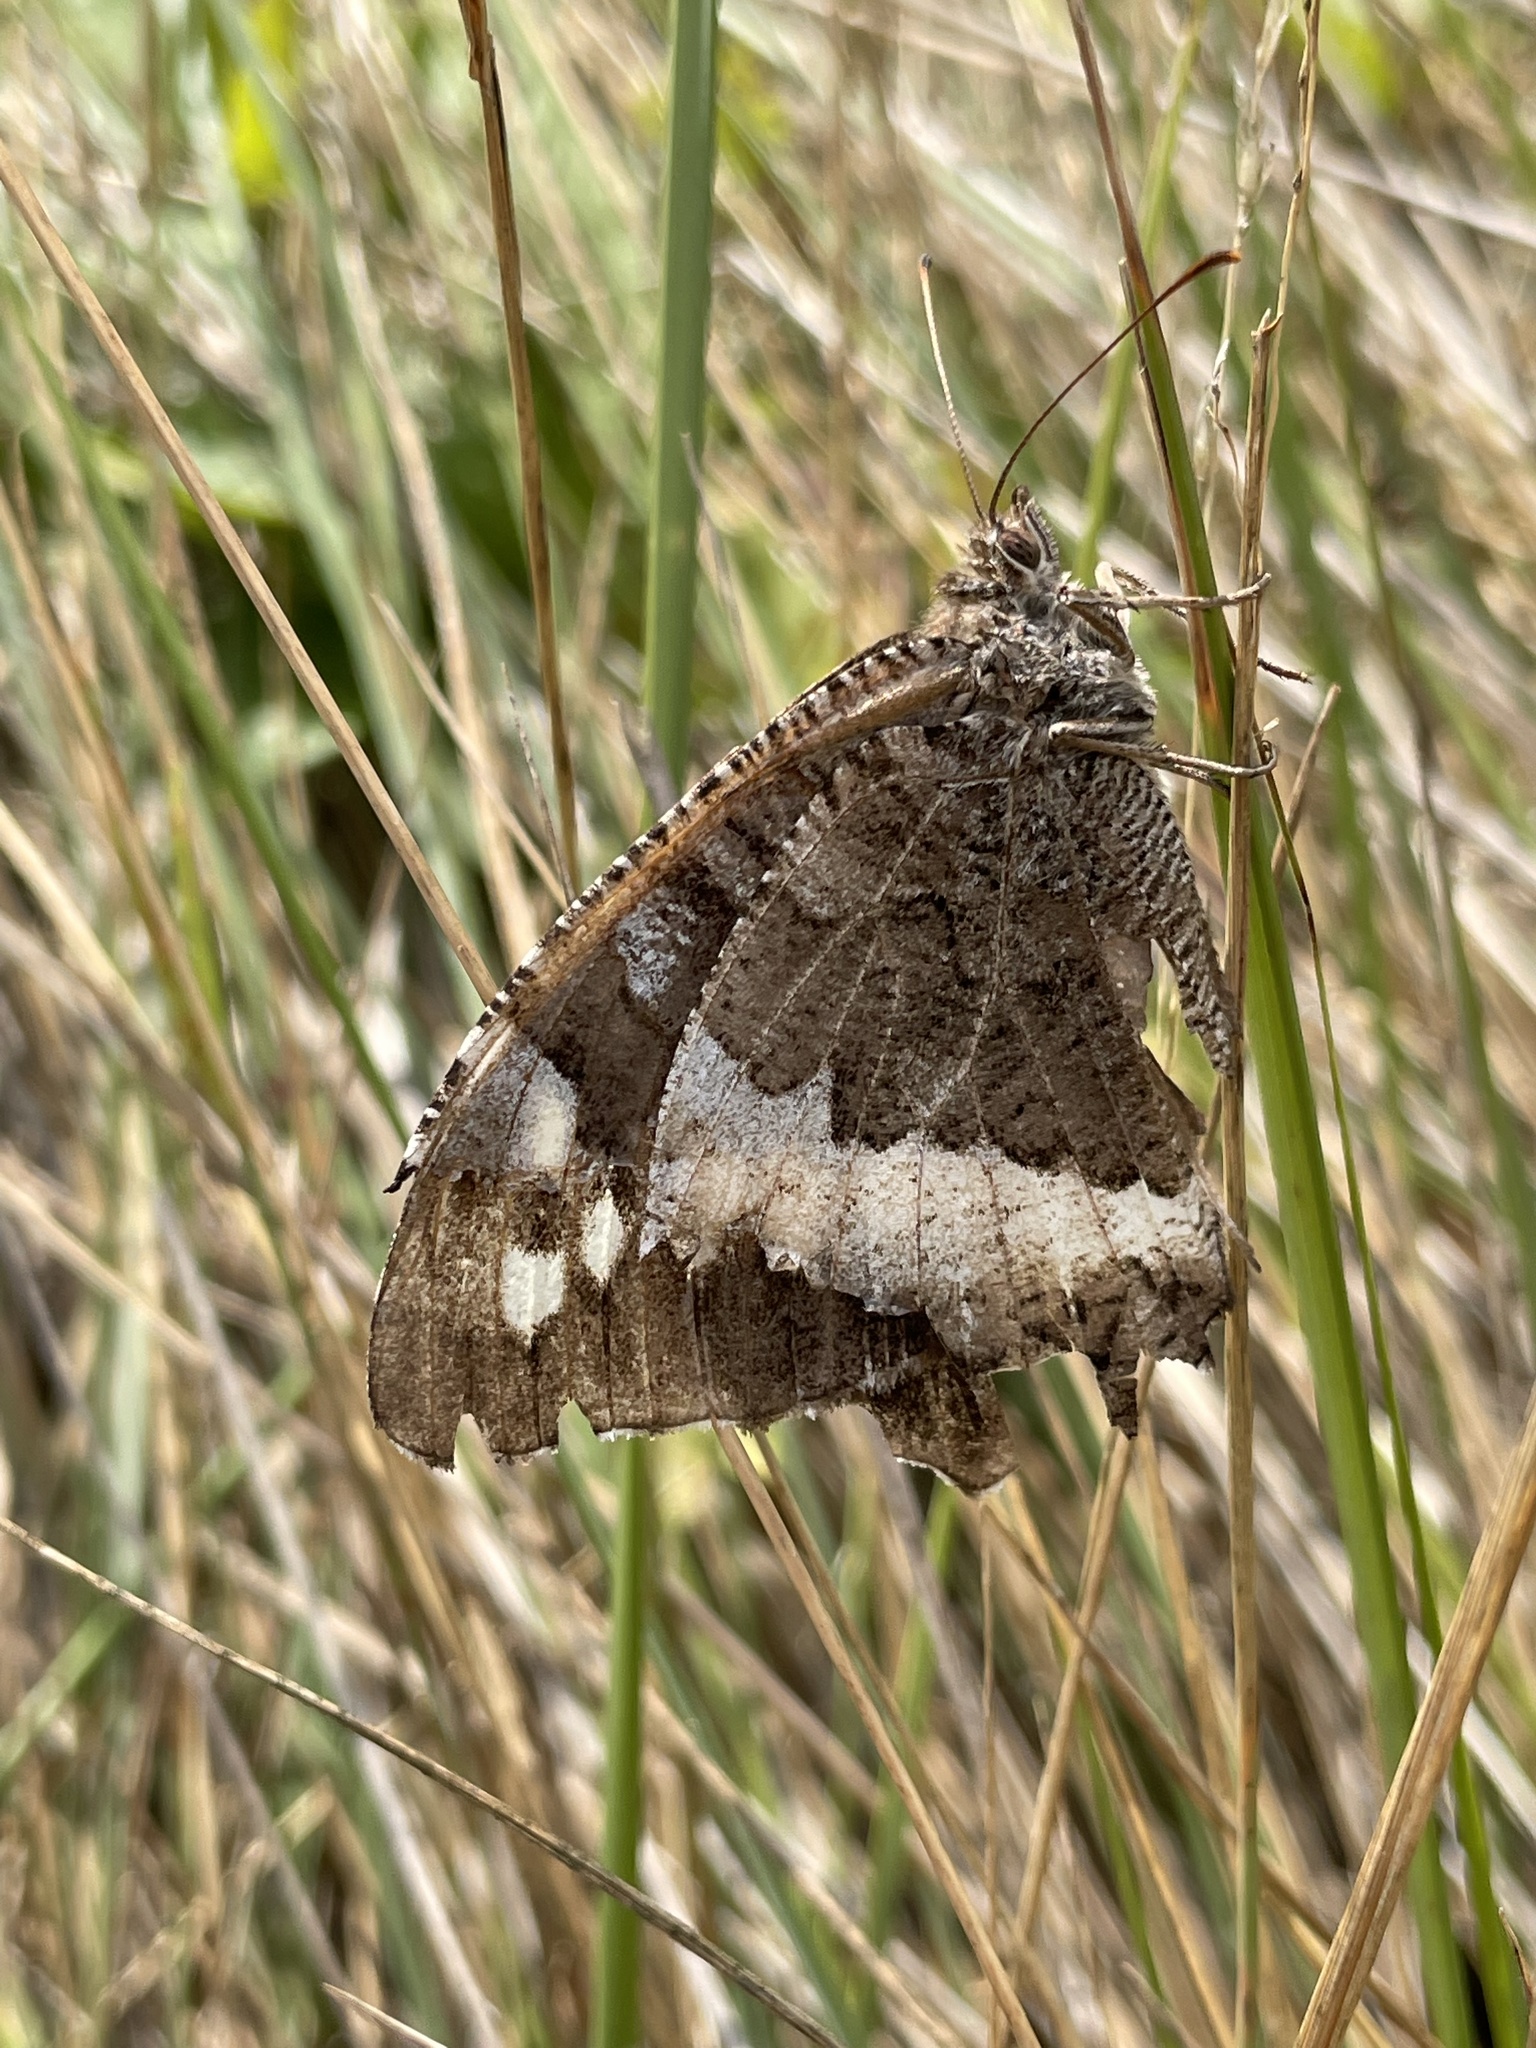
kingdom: Animalia
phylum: Arthropoda
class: Insecta
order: Lepidoptera
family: Lycaenidae
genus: Loweia
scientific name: Loweia tityrus
